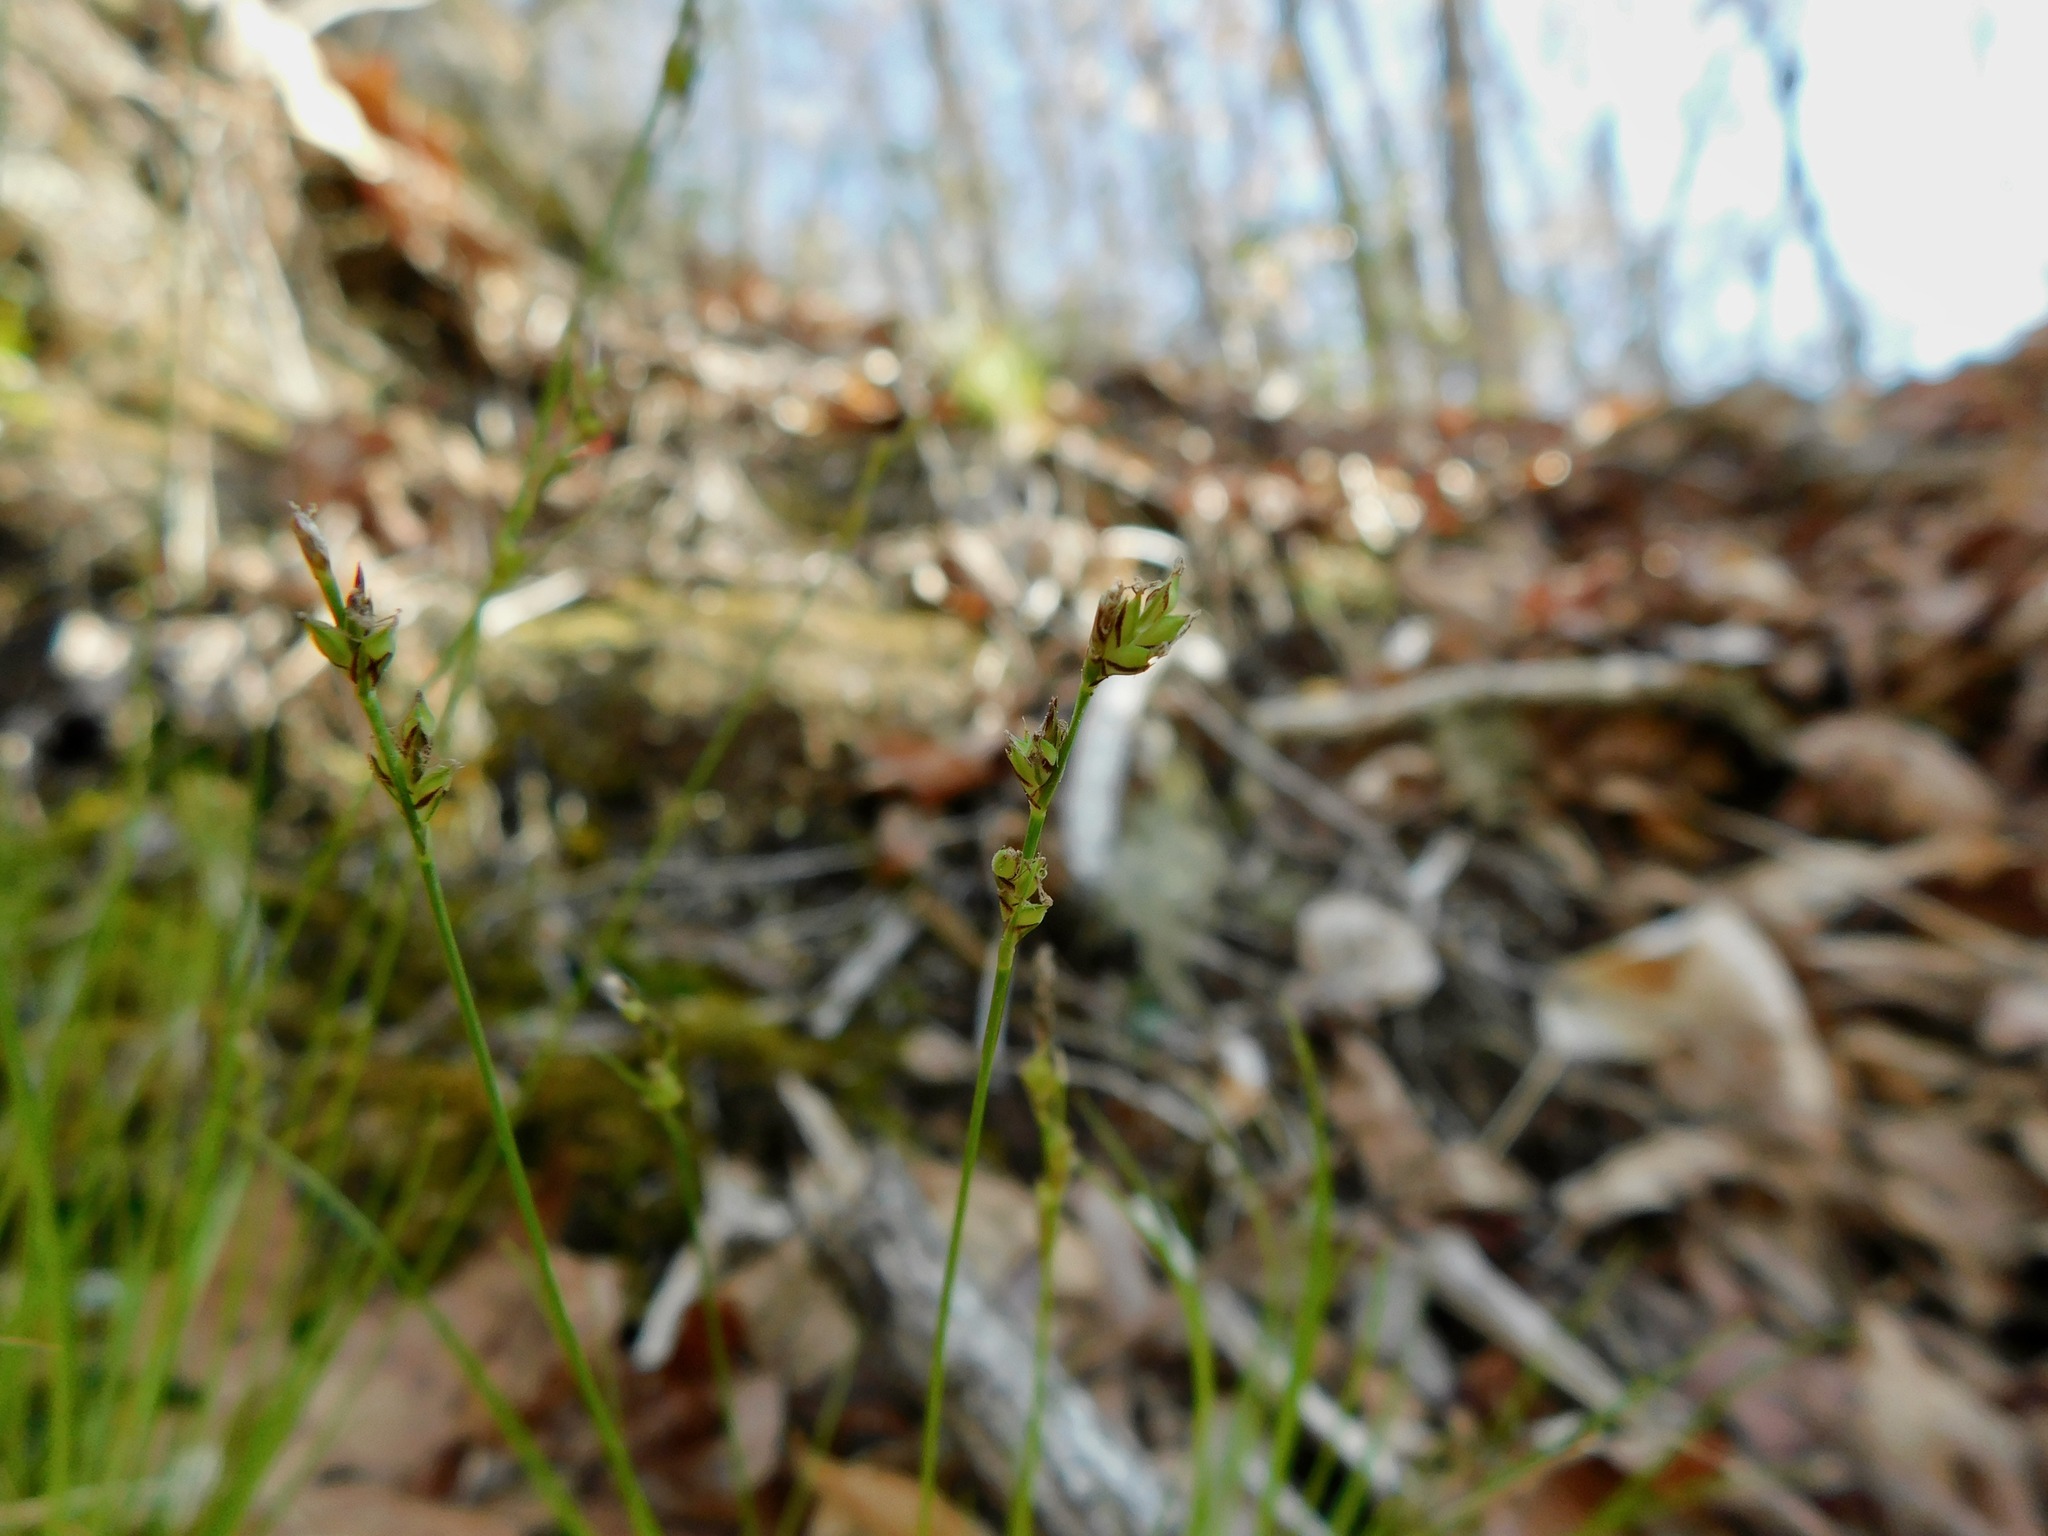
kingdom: Plantae
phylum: Tracheophyta
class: Liliopsida
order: Poales
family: Cyperaceae
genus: Carex
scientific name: Carex pensylvanica
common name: Common oak sedge
